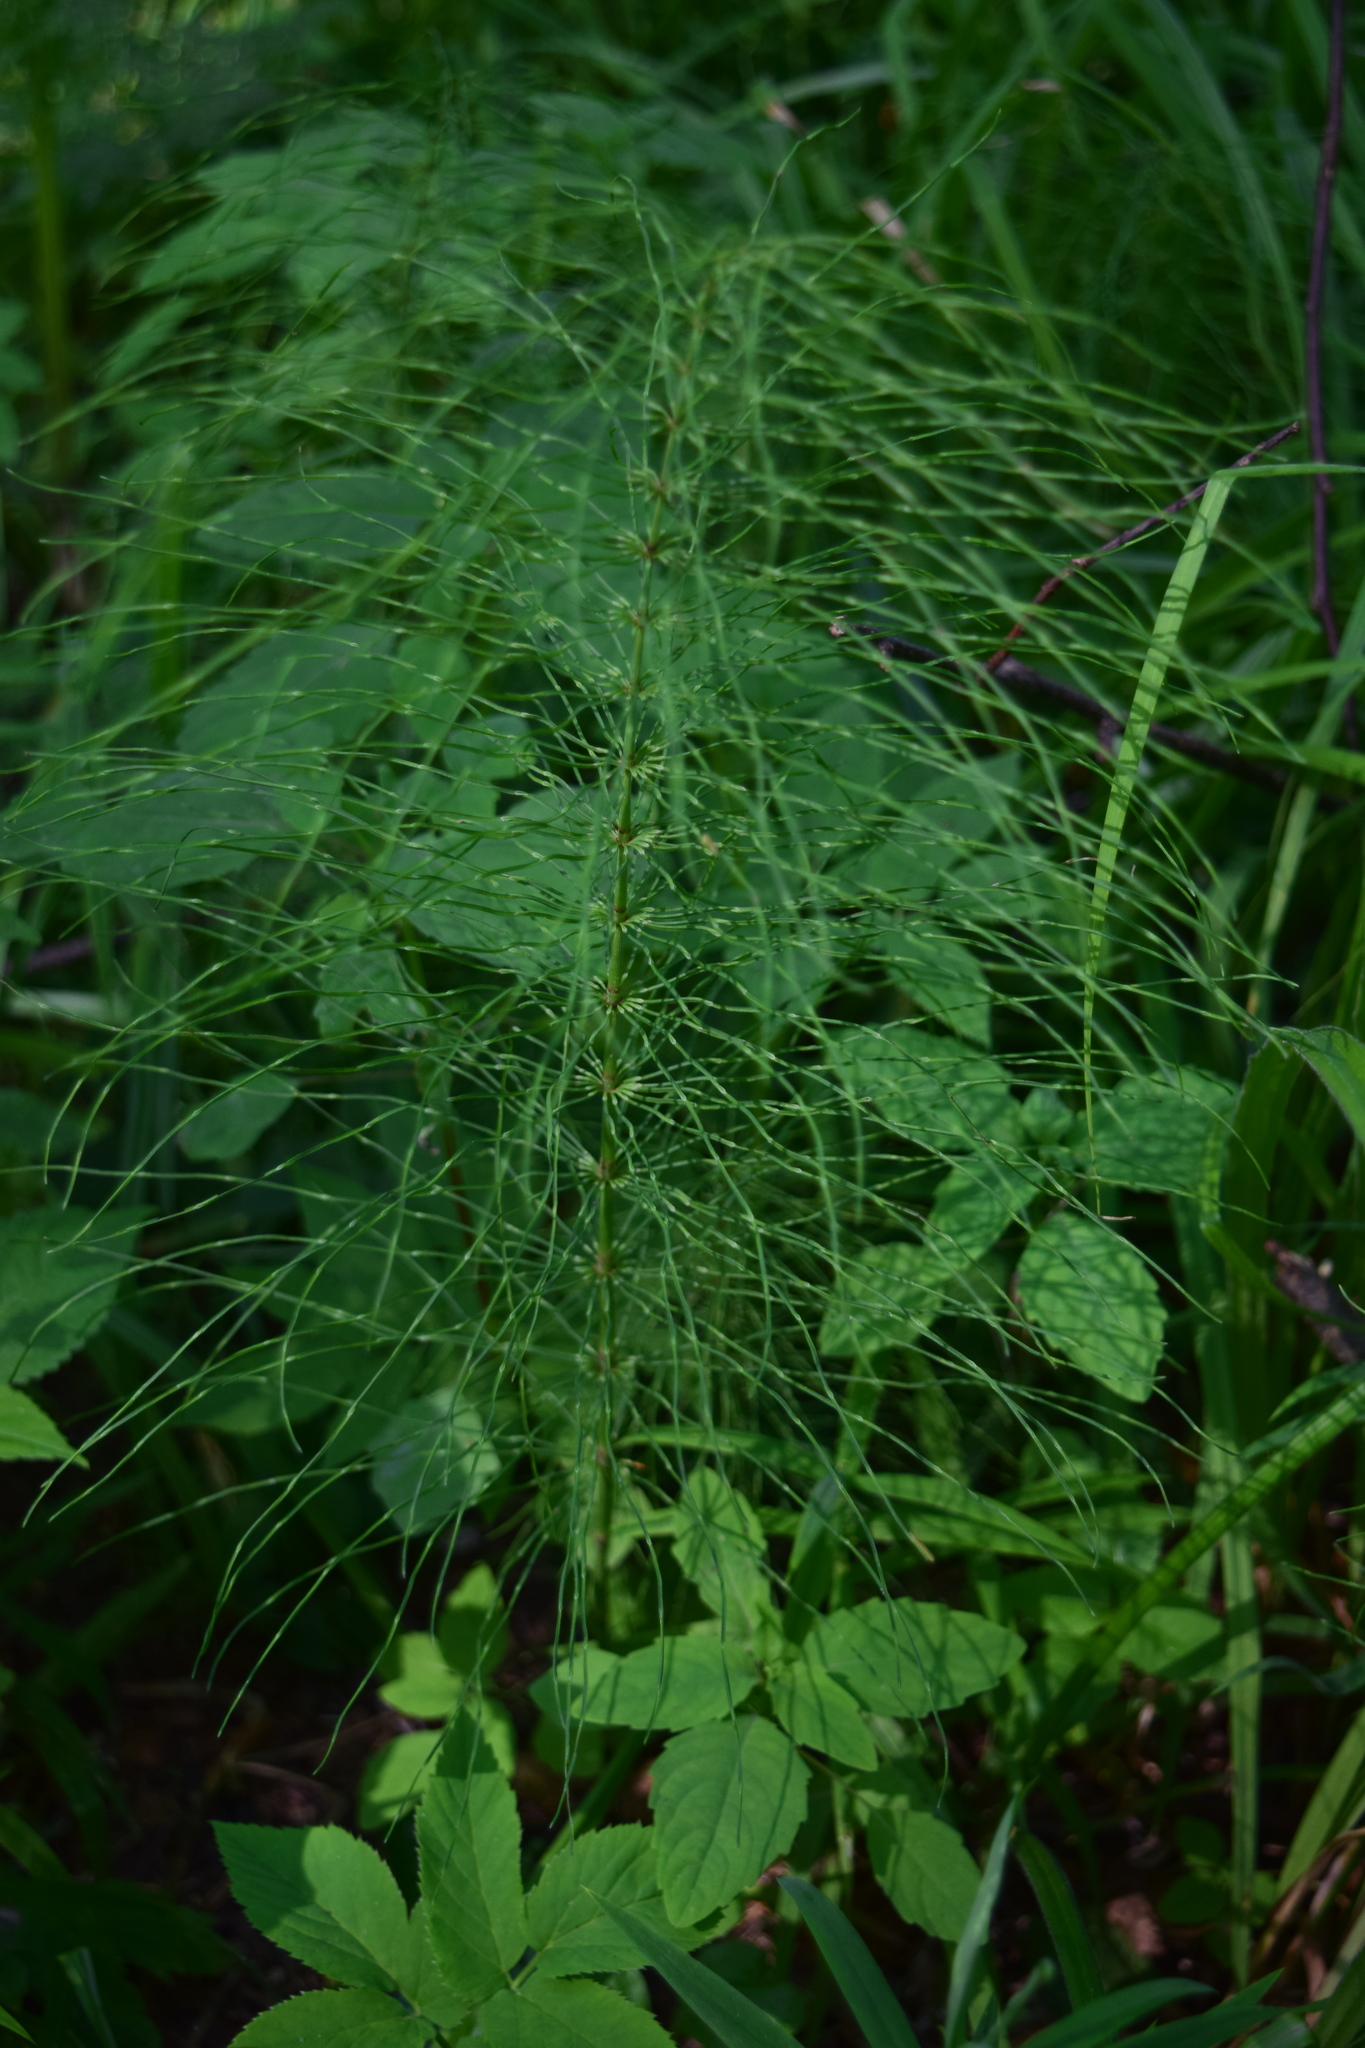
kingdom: Plantae
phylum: Tracheophyta
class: Polypodiopsida
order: Equisetales
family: Equisetaceae
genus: Equisetum
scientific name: Equisetum pratense
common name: Meadow horsetail
